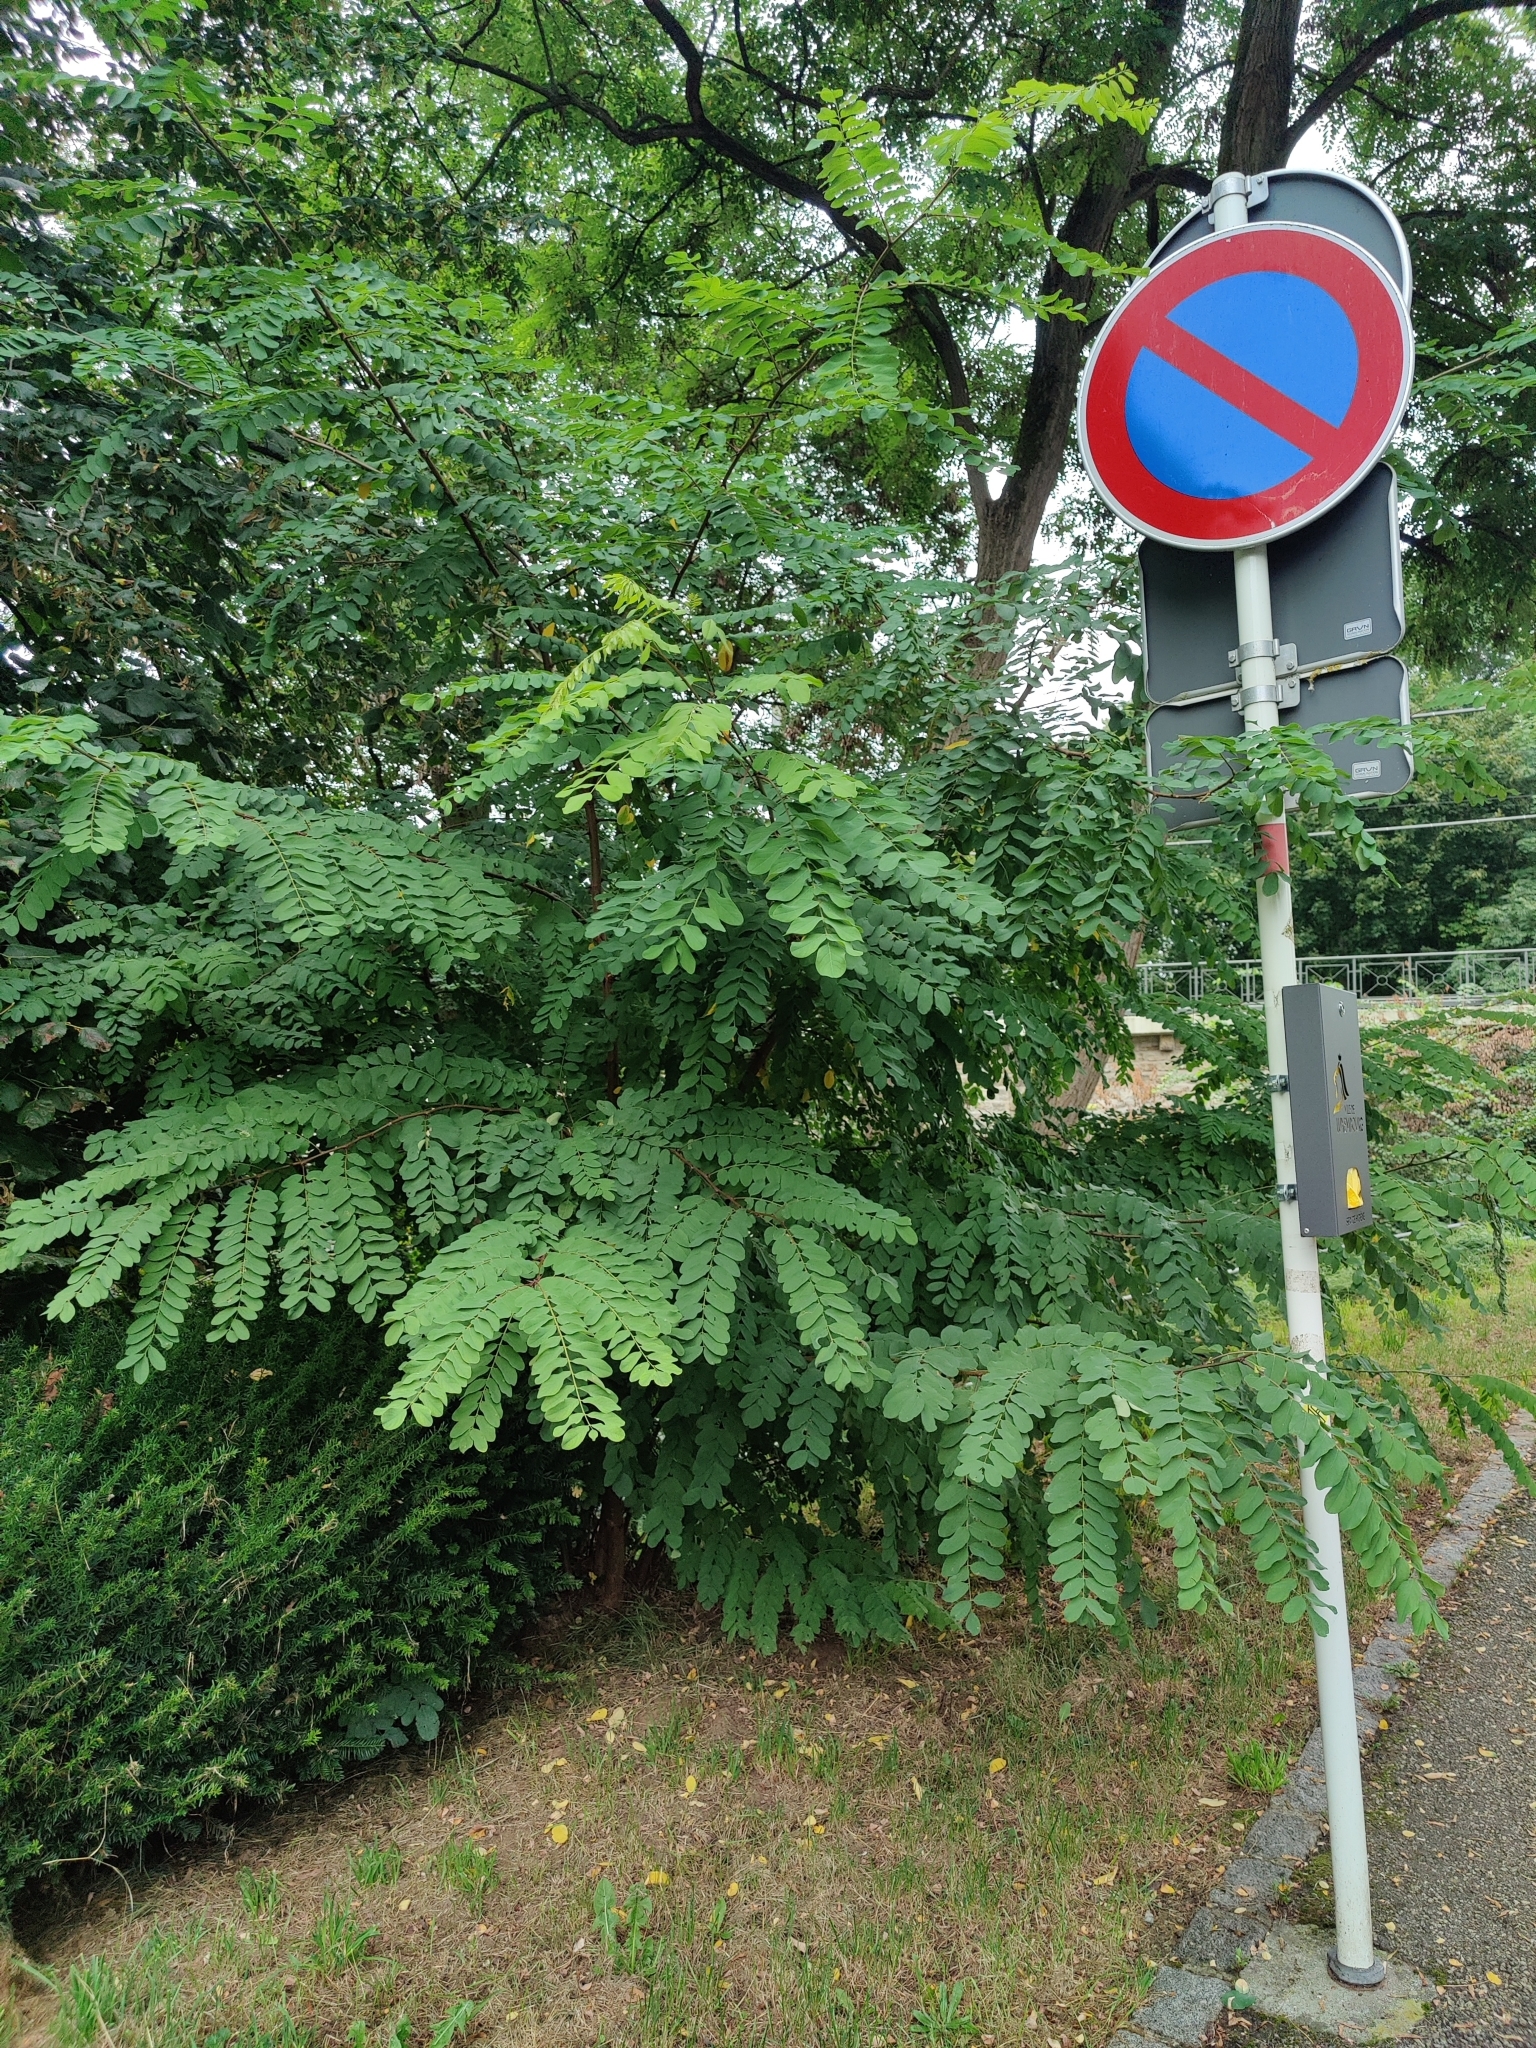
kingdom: Plantae
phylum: Tracheophyta
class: Magnoliopsida
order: Fabales
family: Fabaceae
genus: Robinia
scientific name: Robinia pseudoacacia
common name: Black locust
